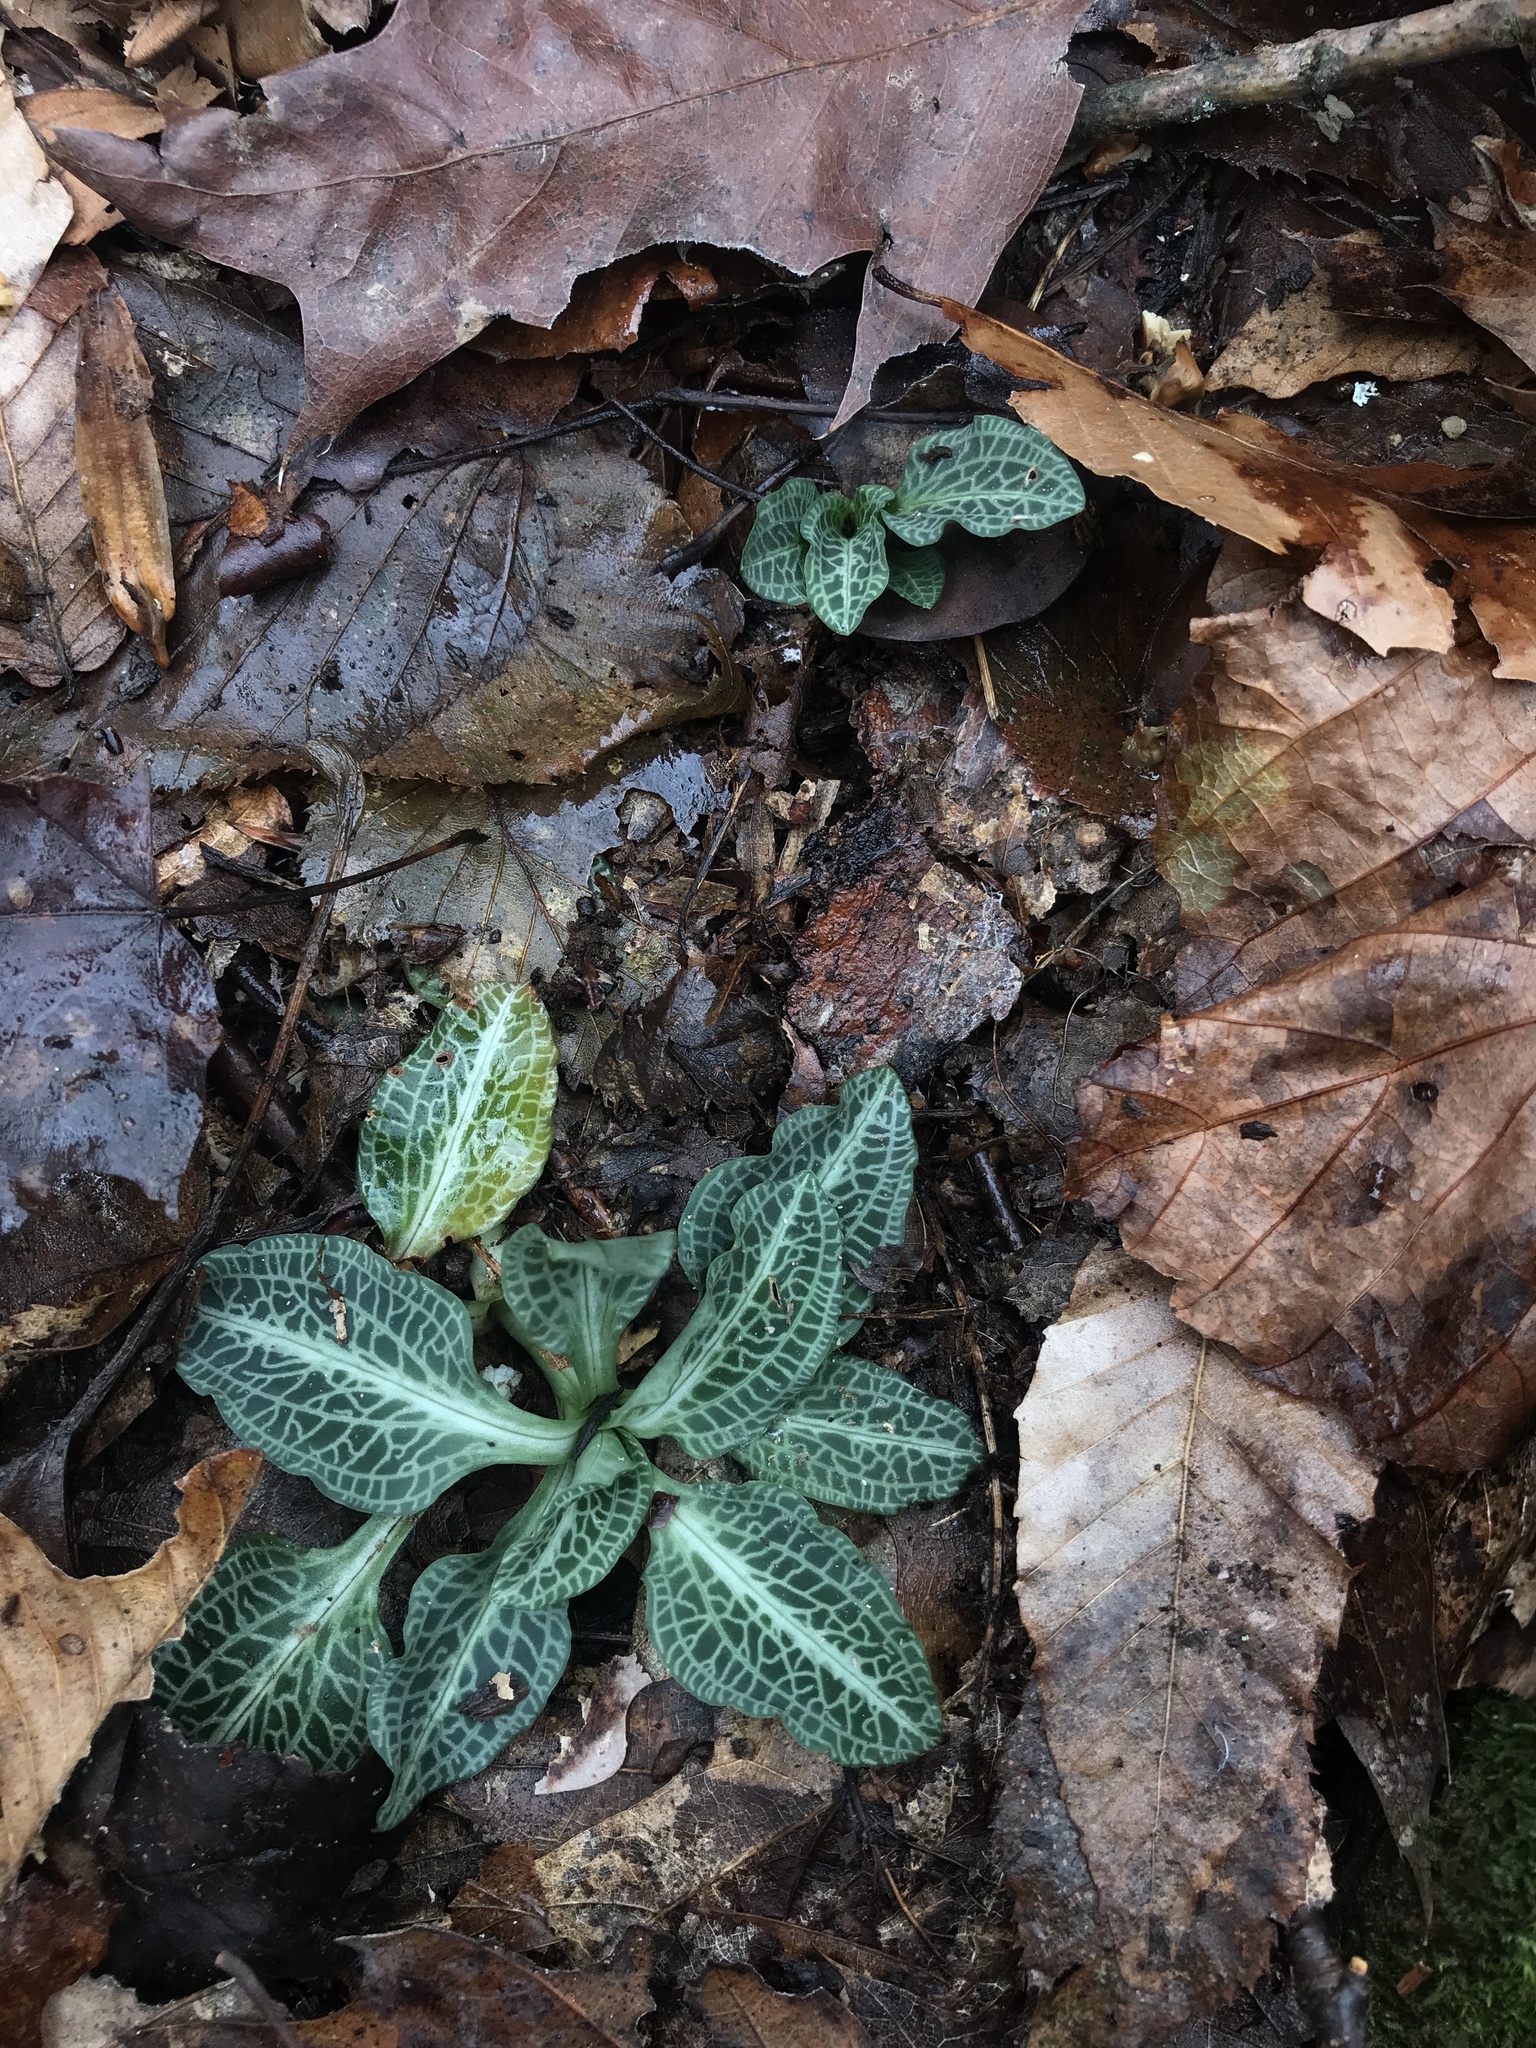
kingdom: Plantae
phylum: Tracheophyta
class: Liliopsida
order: Asparagales
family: Orchidaceae
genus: Goodyera
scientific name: Goodyera pubescens
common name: Downy rattlesnake-plantain
